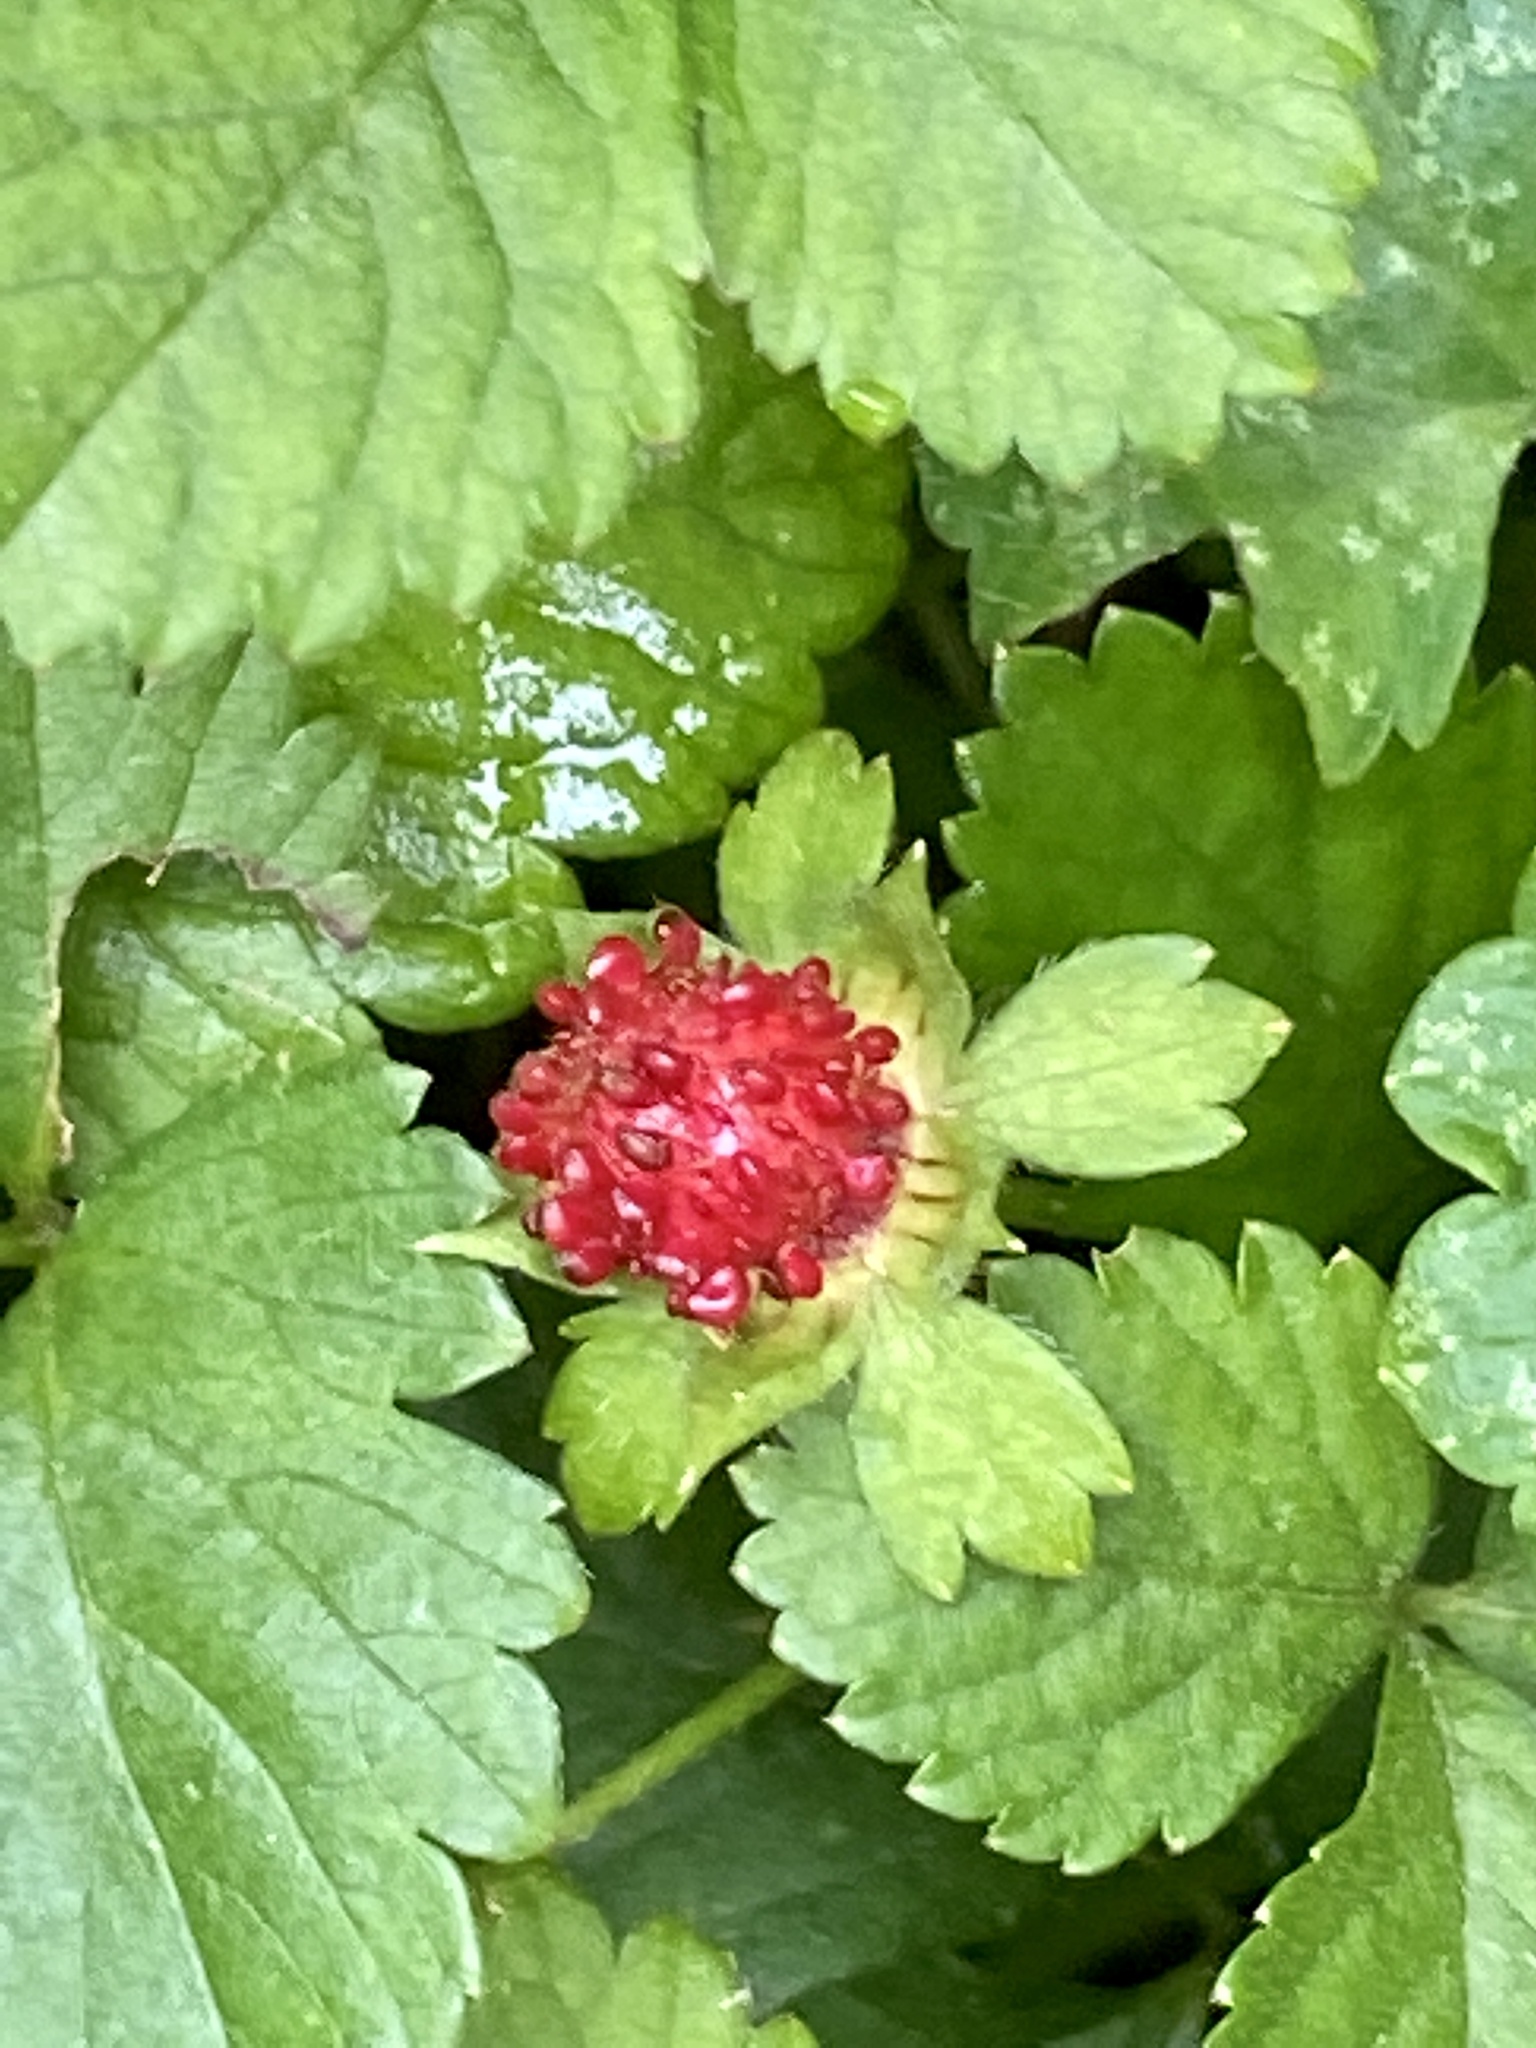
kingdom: Plantae
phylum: Tracheophyta
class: Magnoliopsida
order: Rosales
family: Rosaceae
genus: Potentilla
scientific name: Potentilla indica
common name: Yellow-flowered strawberry
